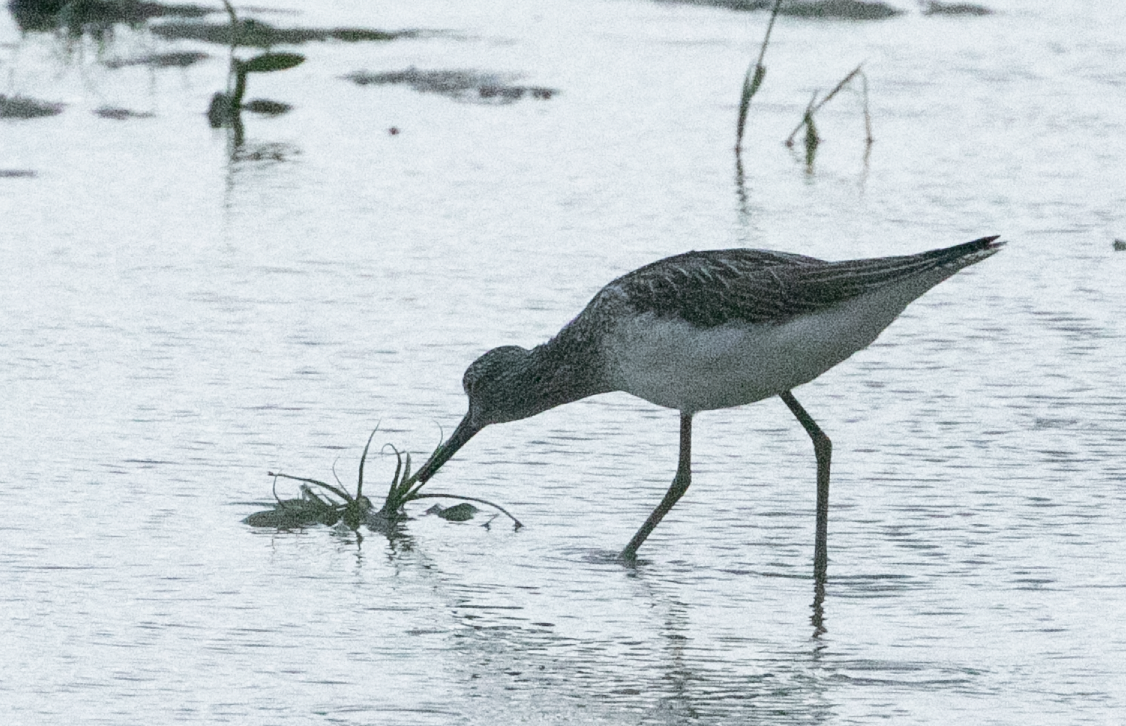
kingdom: Animalia
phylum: Chordata
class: Aves
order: Charadriiformes
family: Scolopacidae
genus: Tringa
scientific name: Tringa nebularia
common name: Common greenshank
